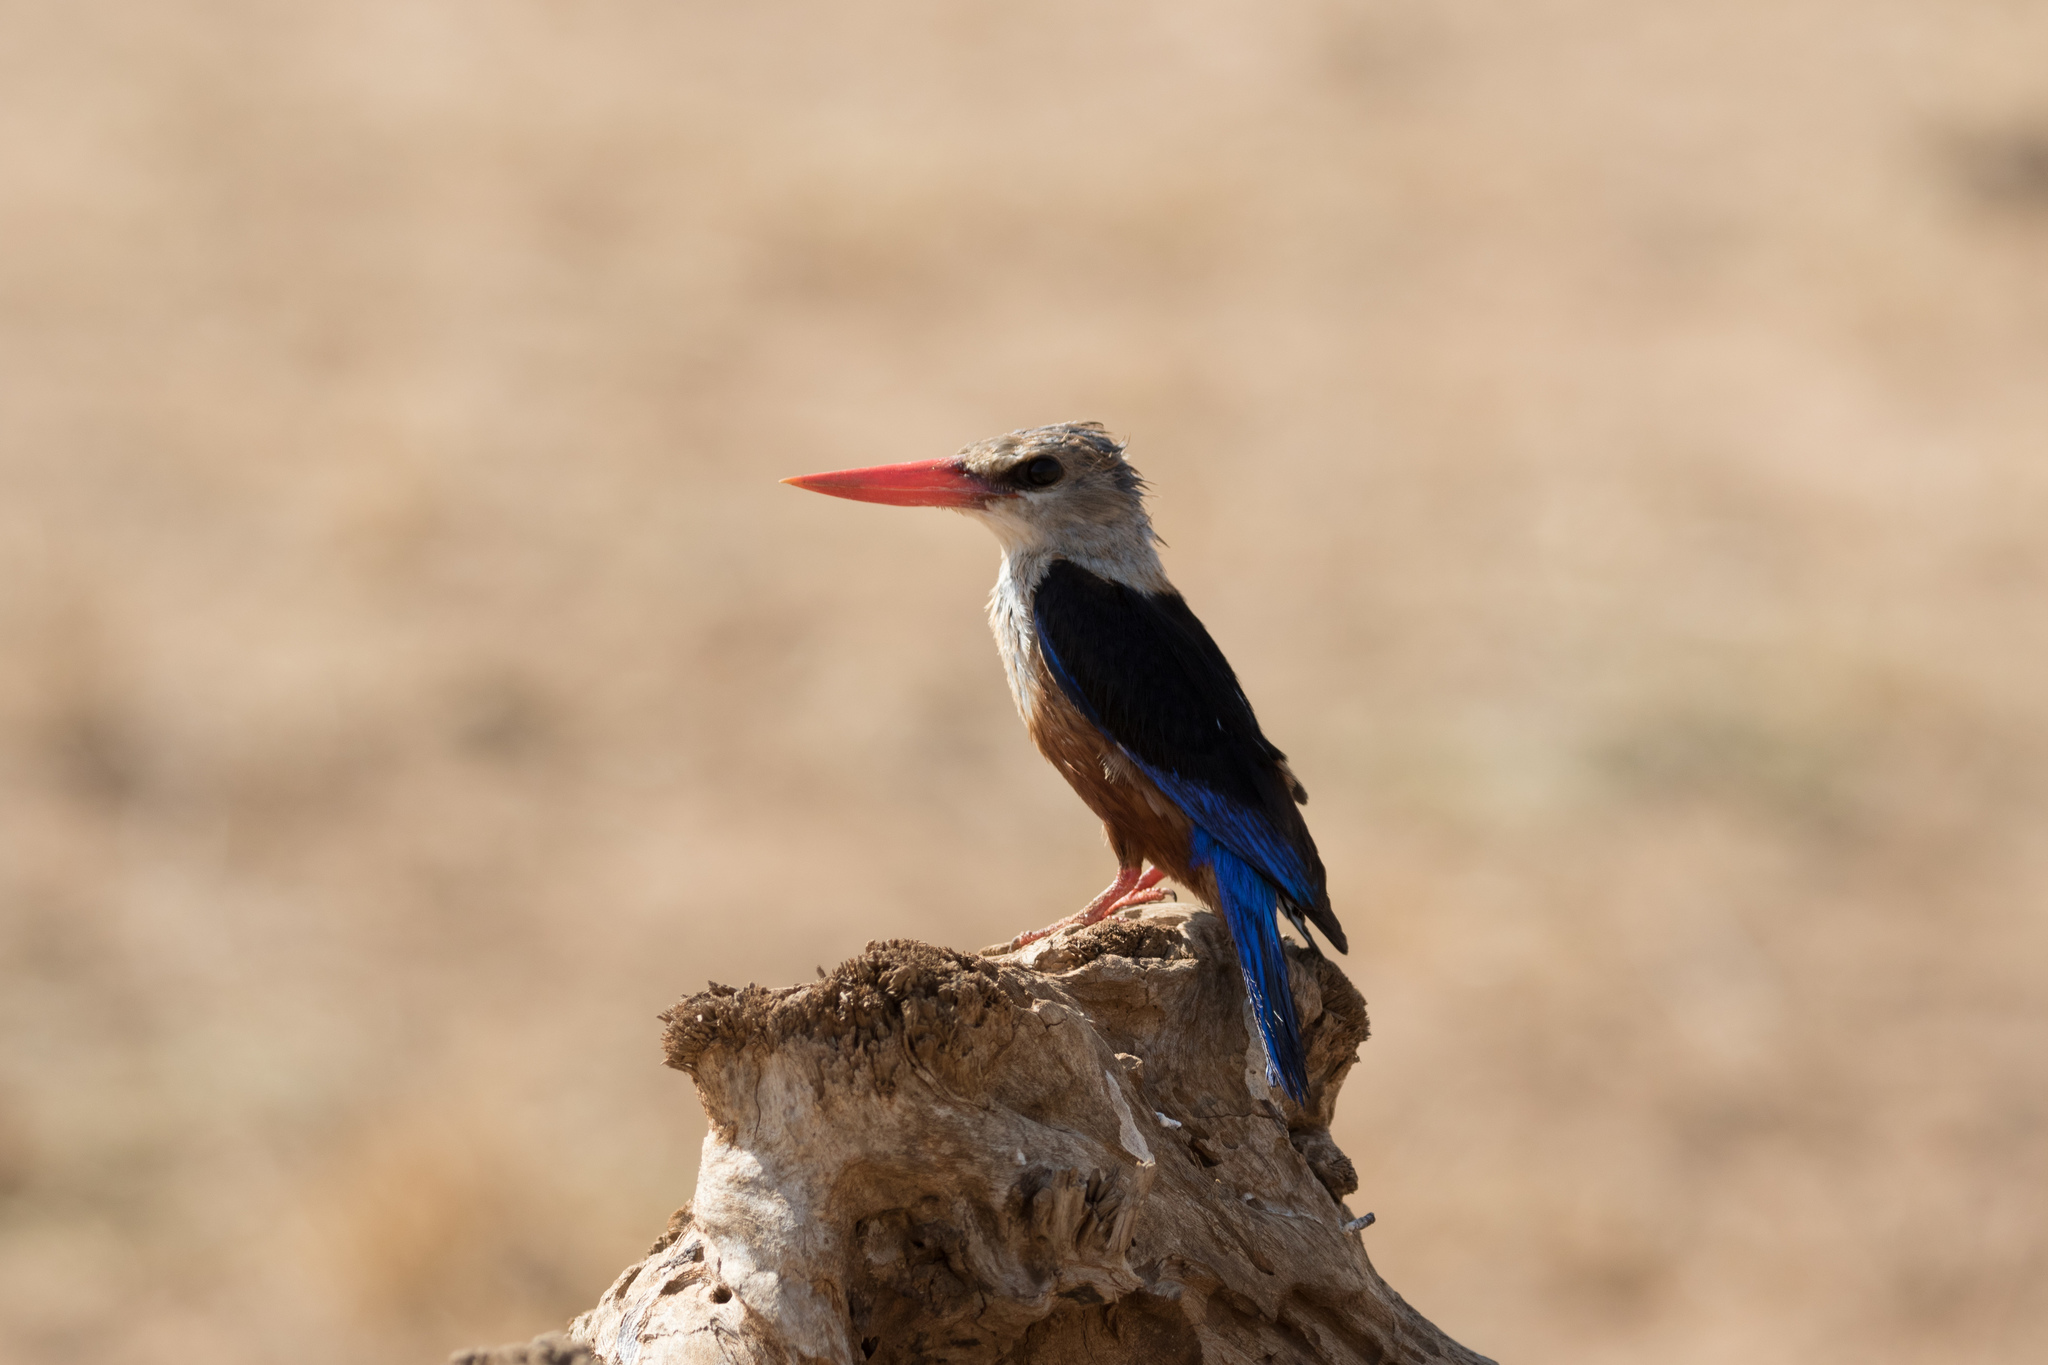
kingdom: Animalia
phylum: Chordata
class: Aves
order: Coraciiformes
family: Alcedinidae
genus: Halcyon
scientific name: Halcyon leucocephala
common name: Grey-headed kingfisher
